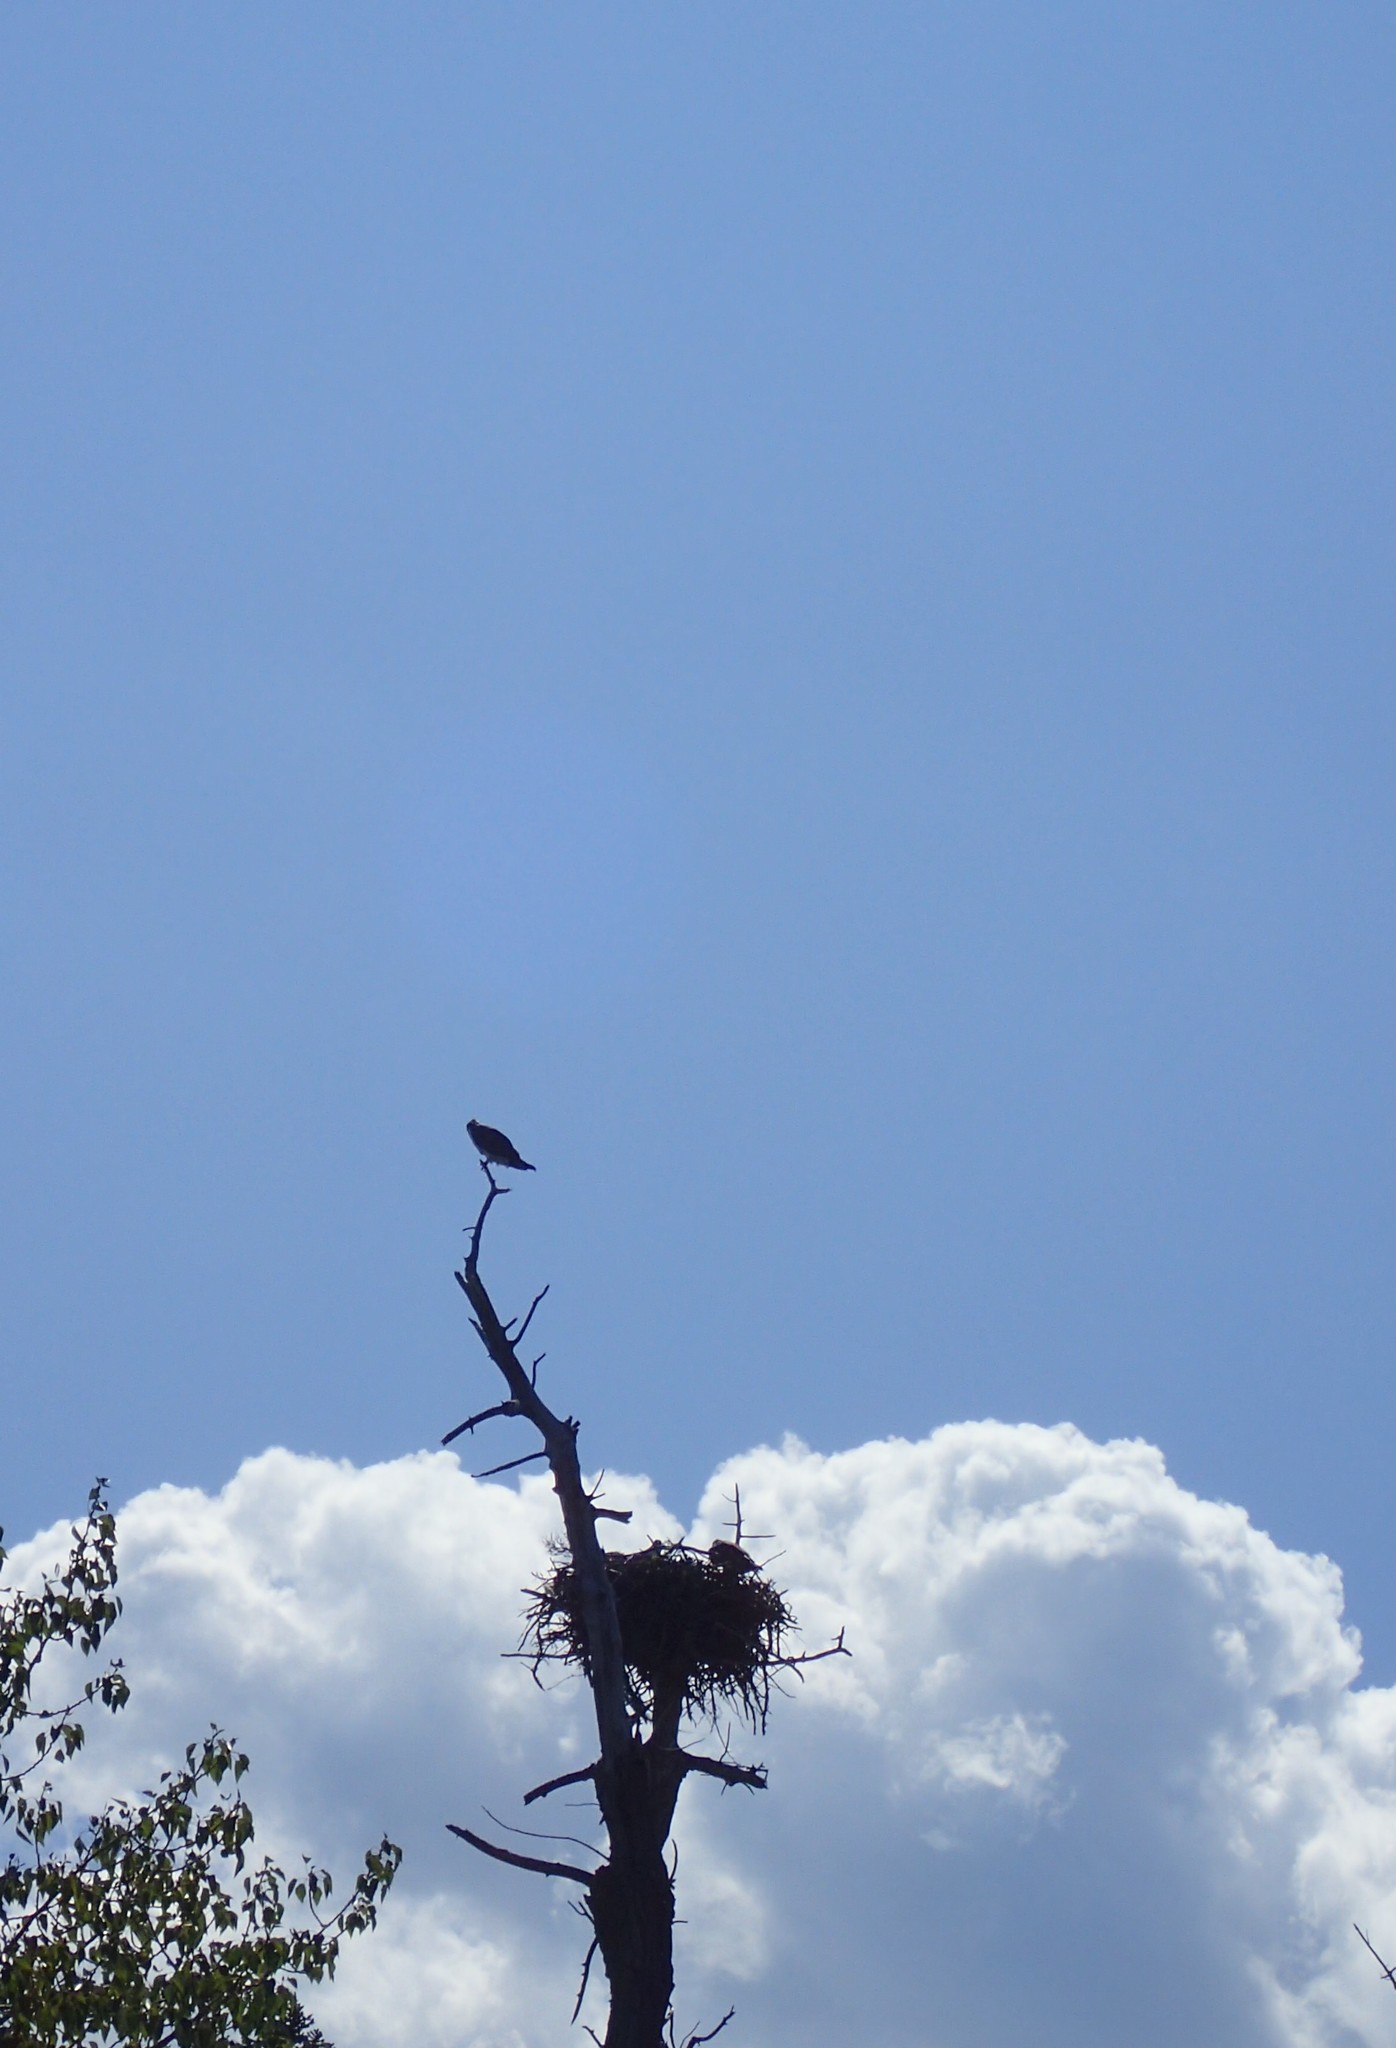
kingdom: Animalia
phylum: Chordata
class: Aves
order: Accipitriformes
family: Pandionidae
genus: Pandion
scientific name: Pandion haliaetus
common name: Osprey
